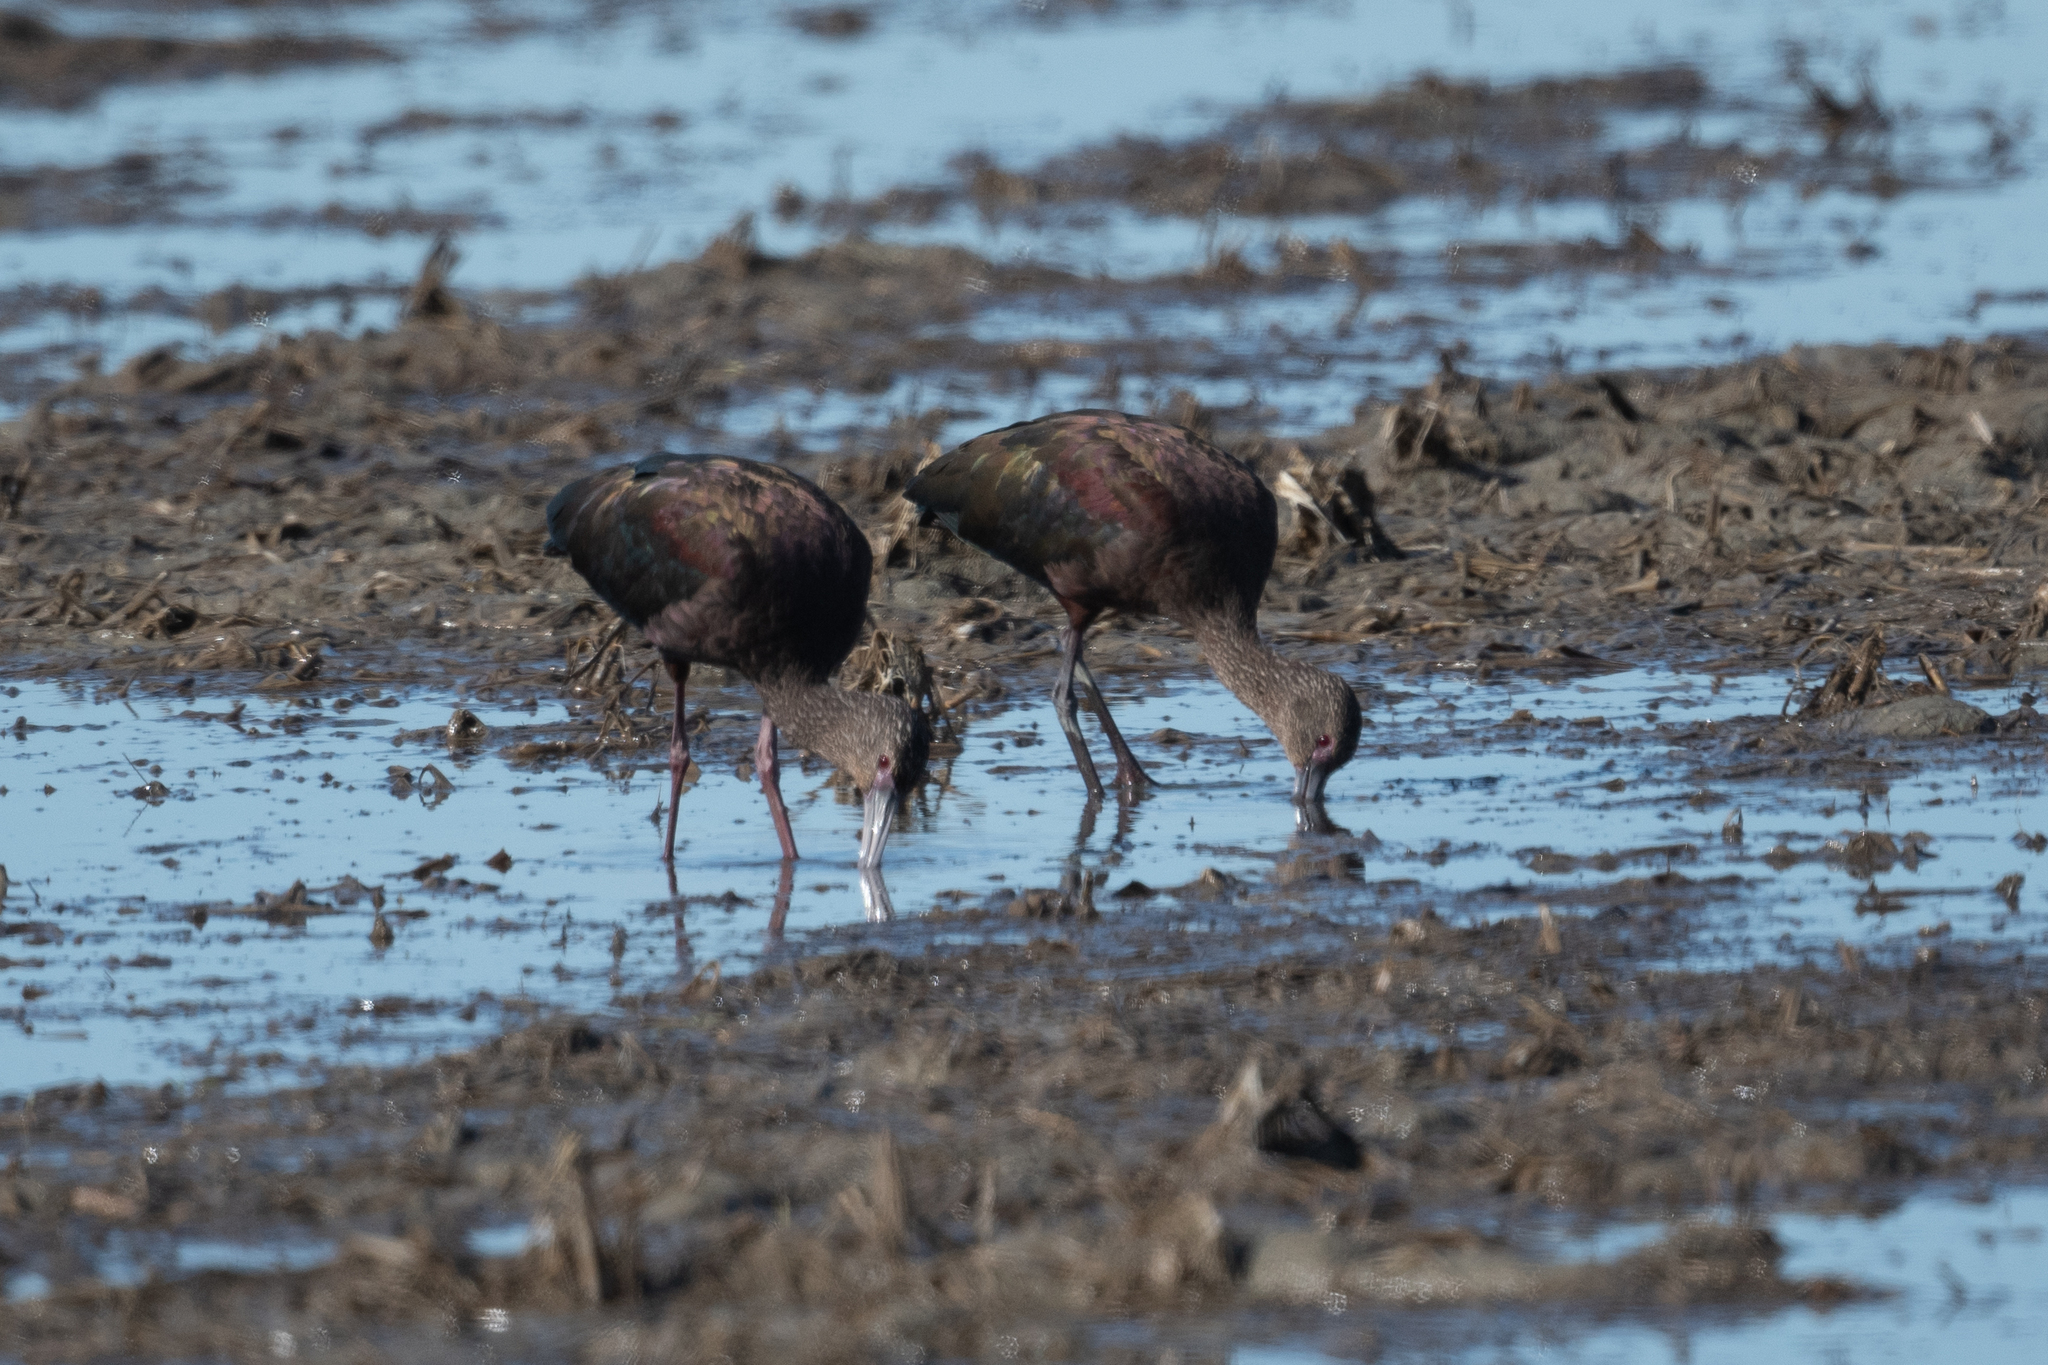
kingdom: Animalia
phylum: Chordata
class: Aves
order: Pelecaniformes
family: Threskiornithidae
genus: Plegadis
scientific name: Plegadis chihi
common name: White-faced ibis
